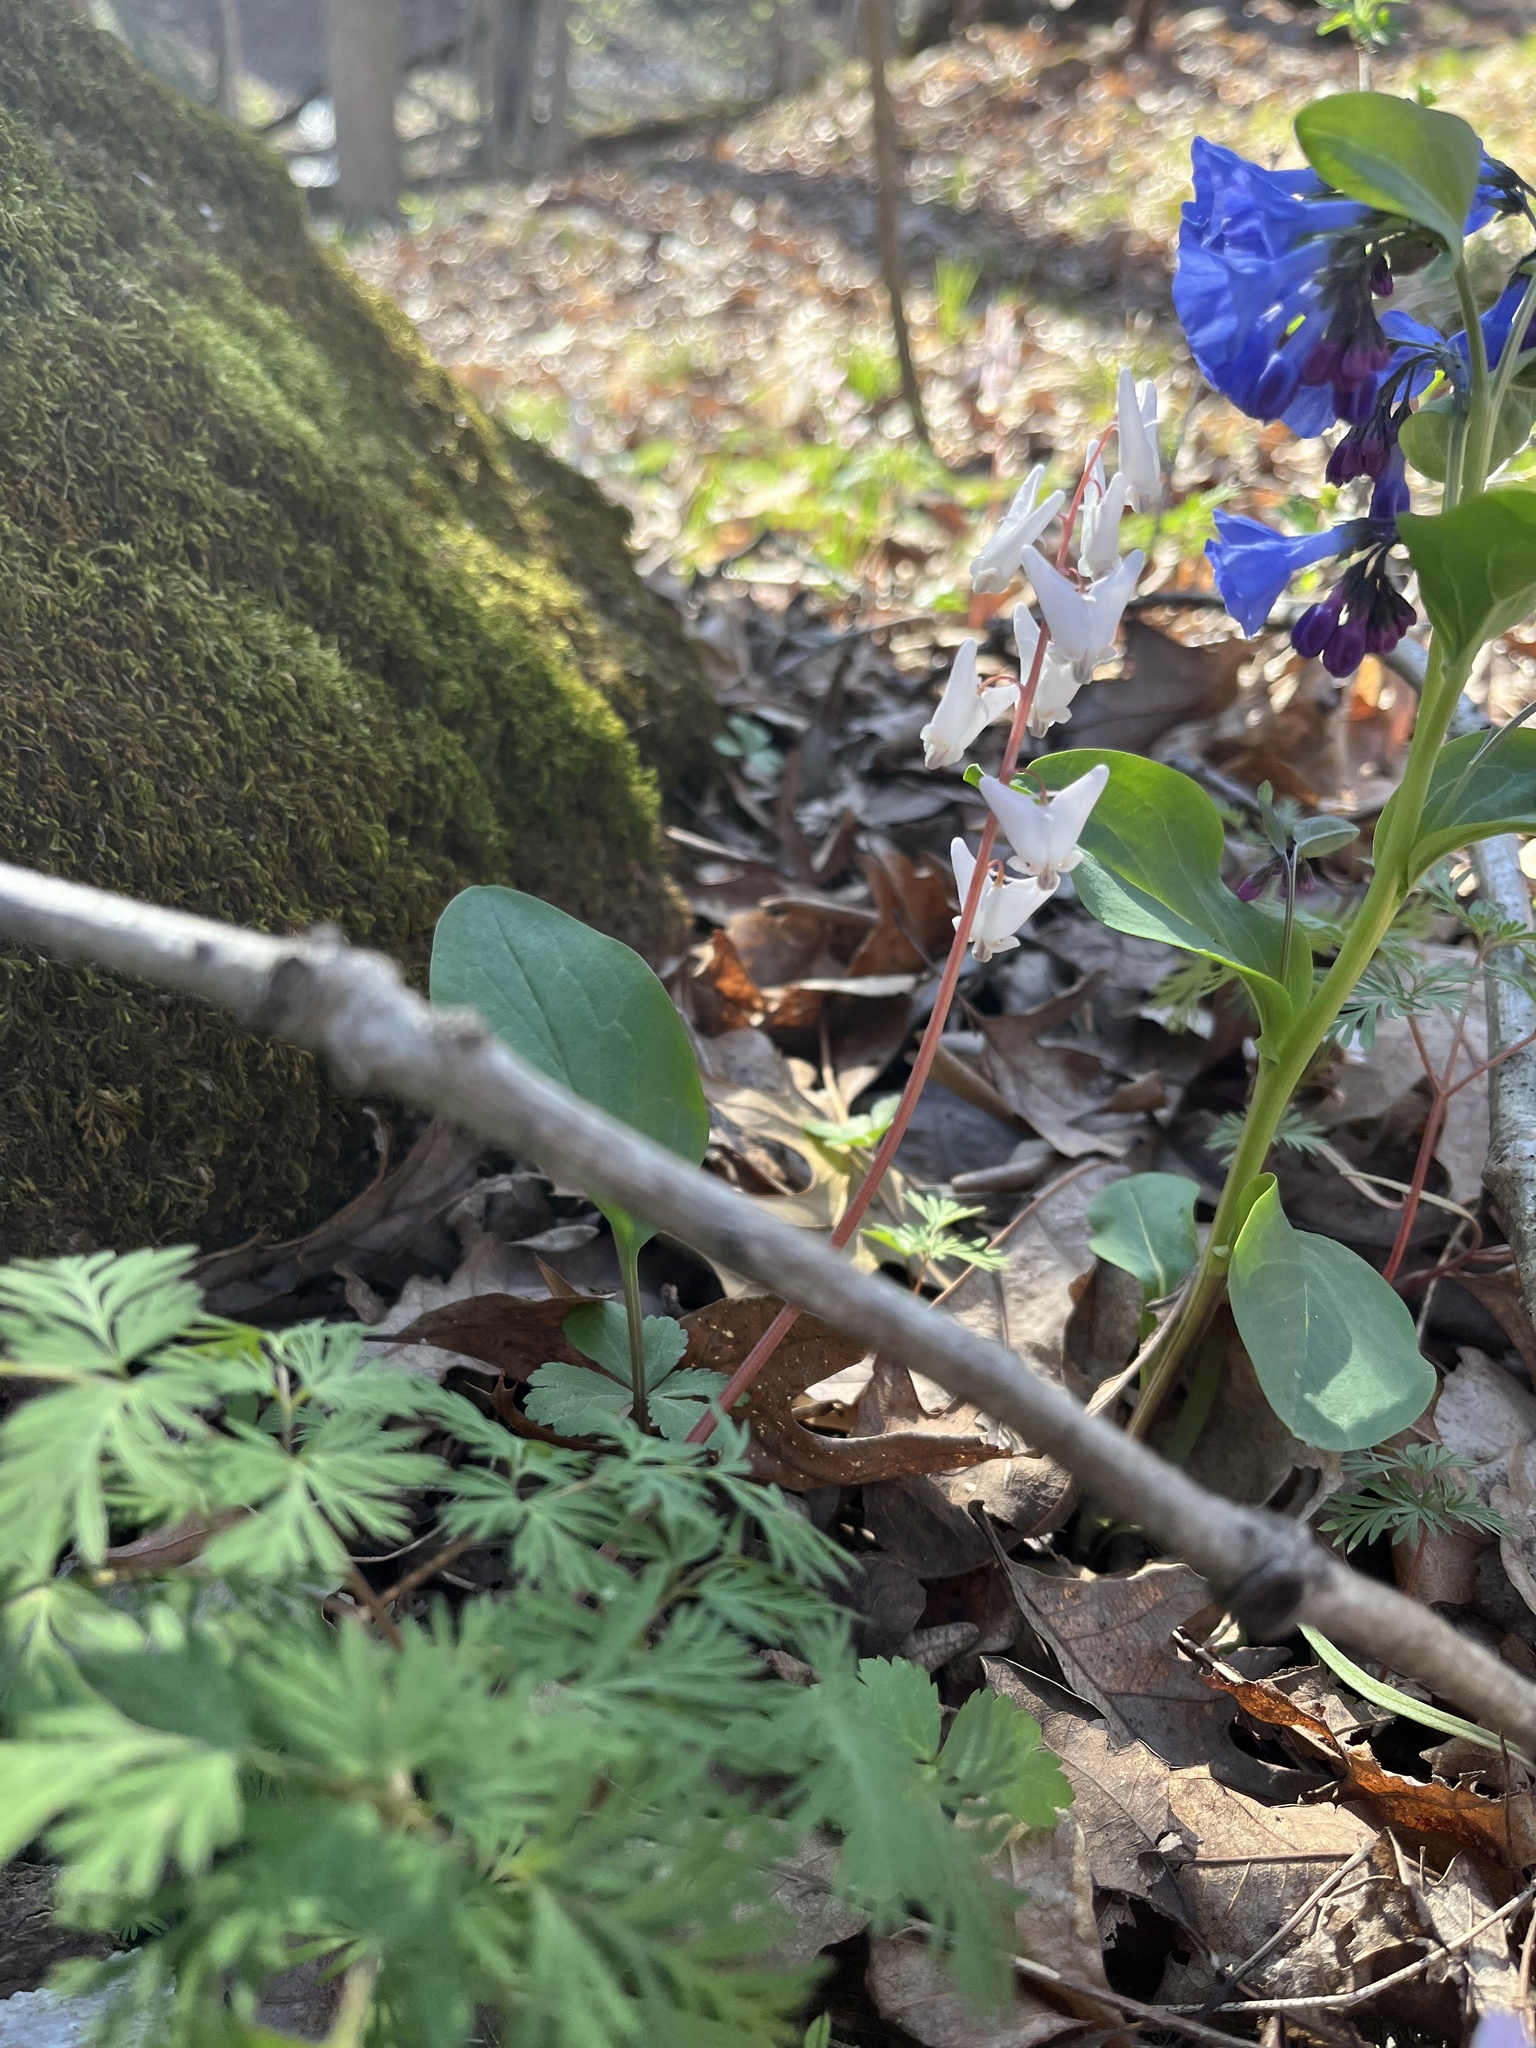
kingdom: Plantae
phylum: Tracheophyta
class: Magnoliopsida
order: Ranunculales
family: Papaveraceae
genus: Dicentra
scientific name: Dicentra cucullaria
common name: Dutchman's breeches
